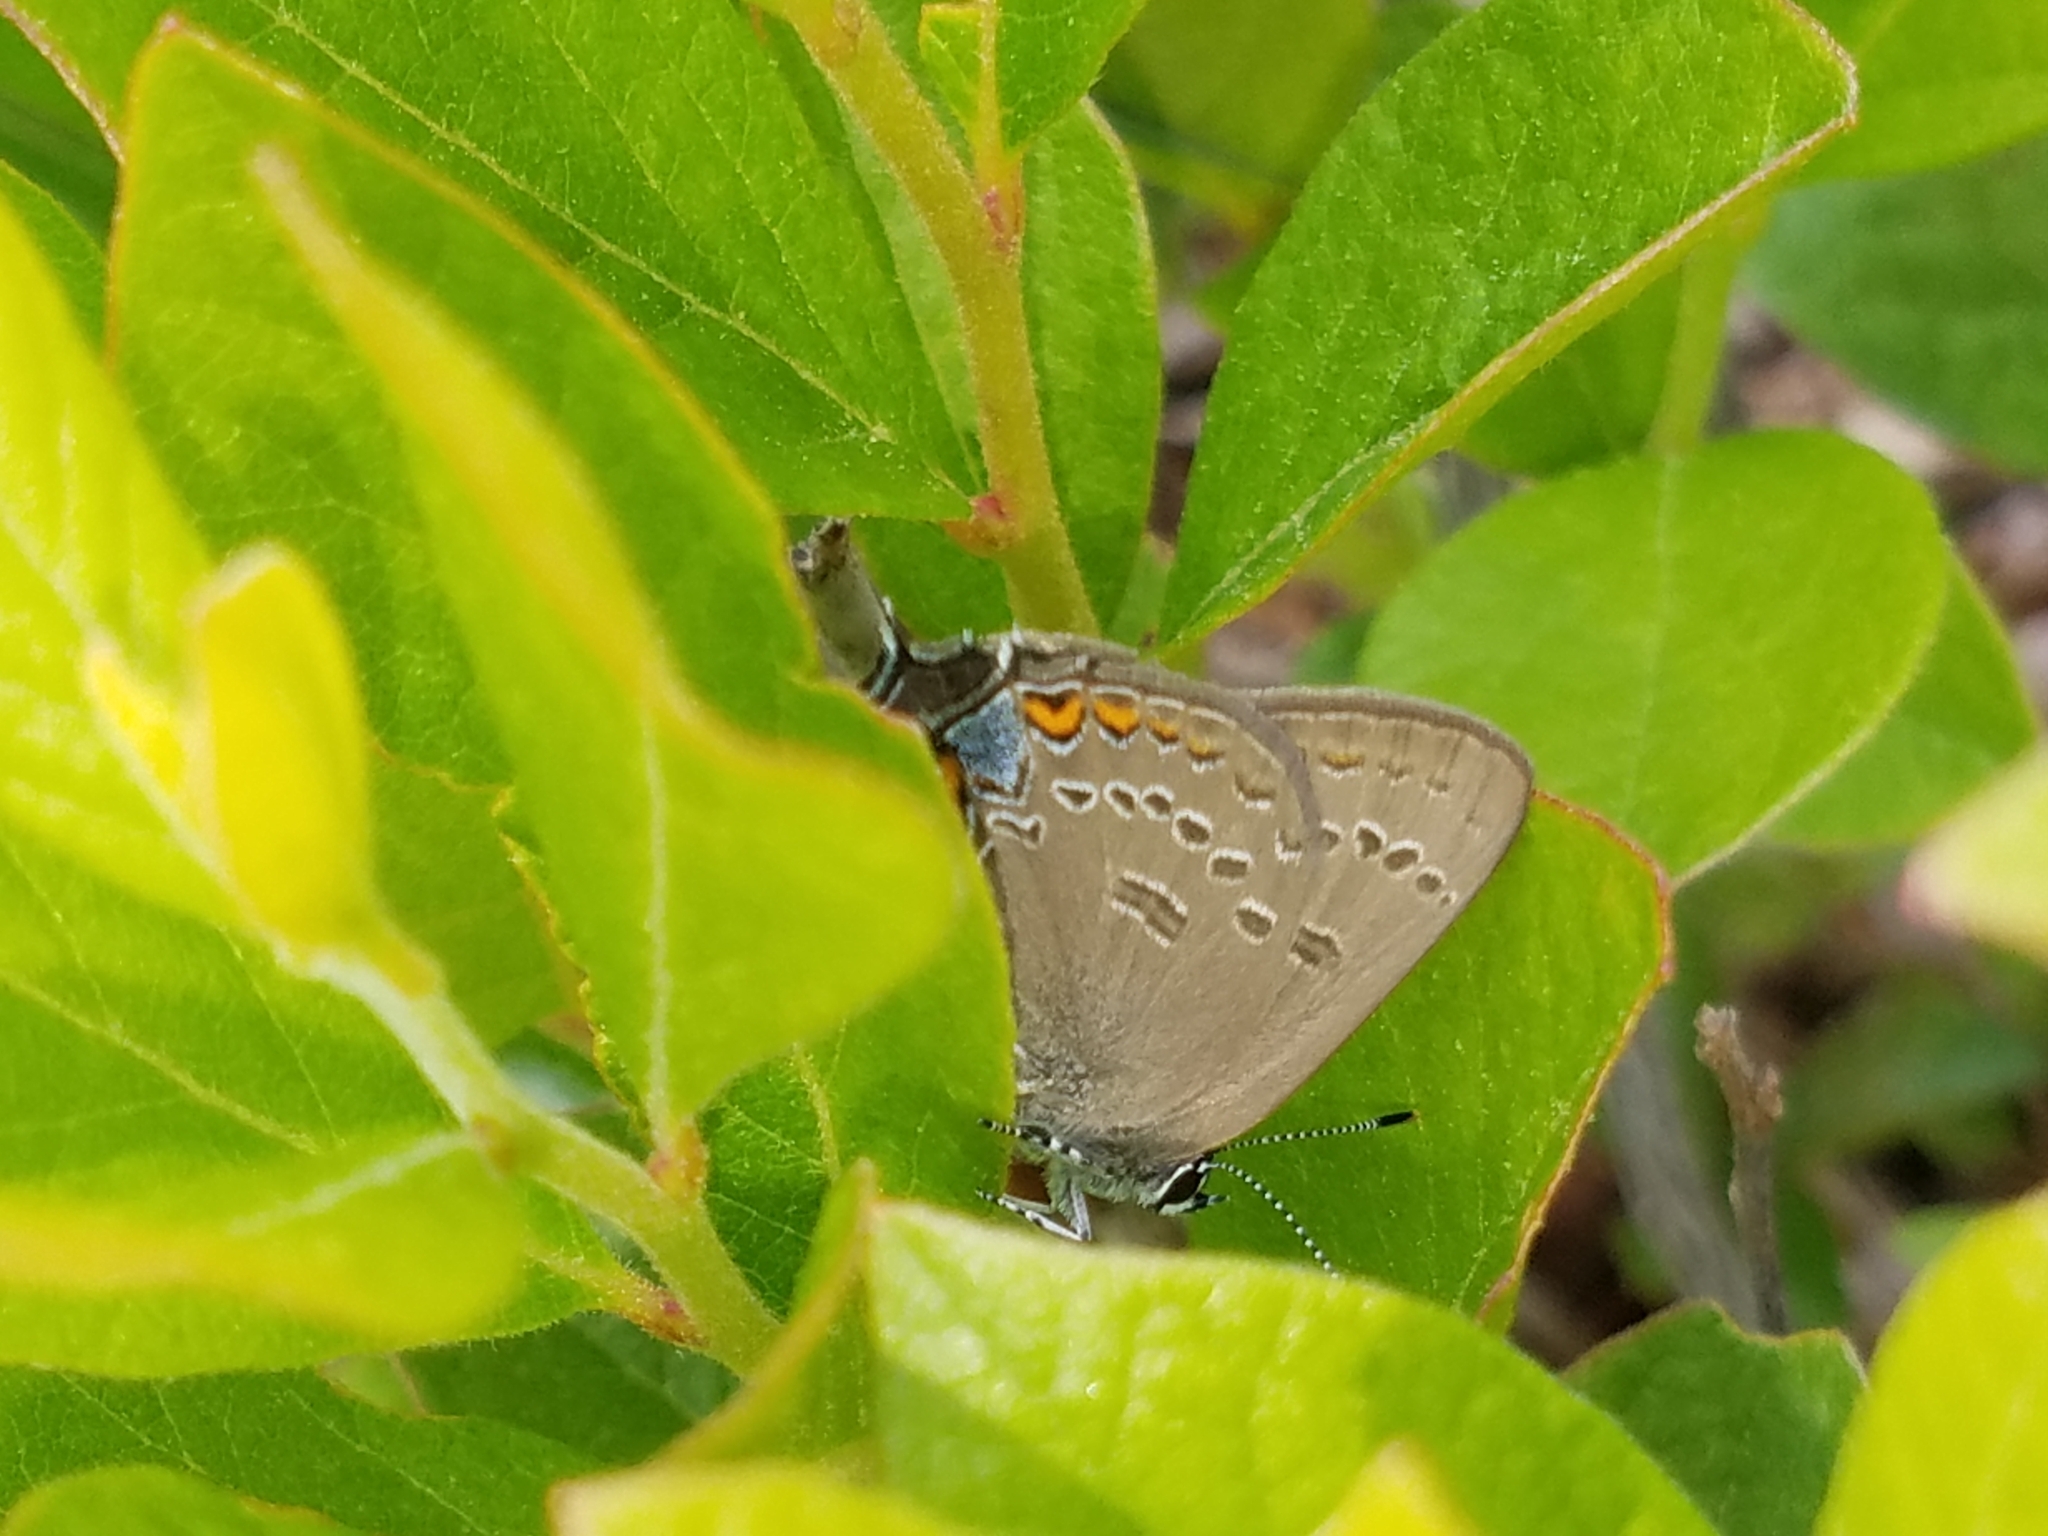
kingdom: Animalia
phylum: Arthropoda
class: Insecta
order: Lepidoptera
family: Lycaenidae
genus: Satyrium
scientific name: Satyrium edwardsii
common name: Edwards' hairstreak
